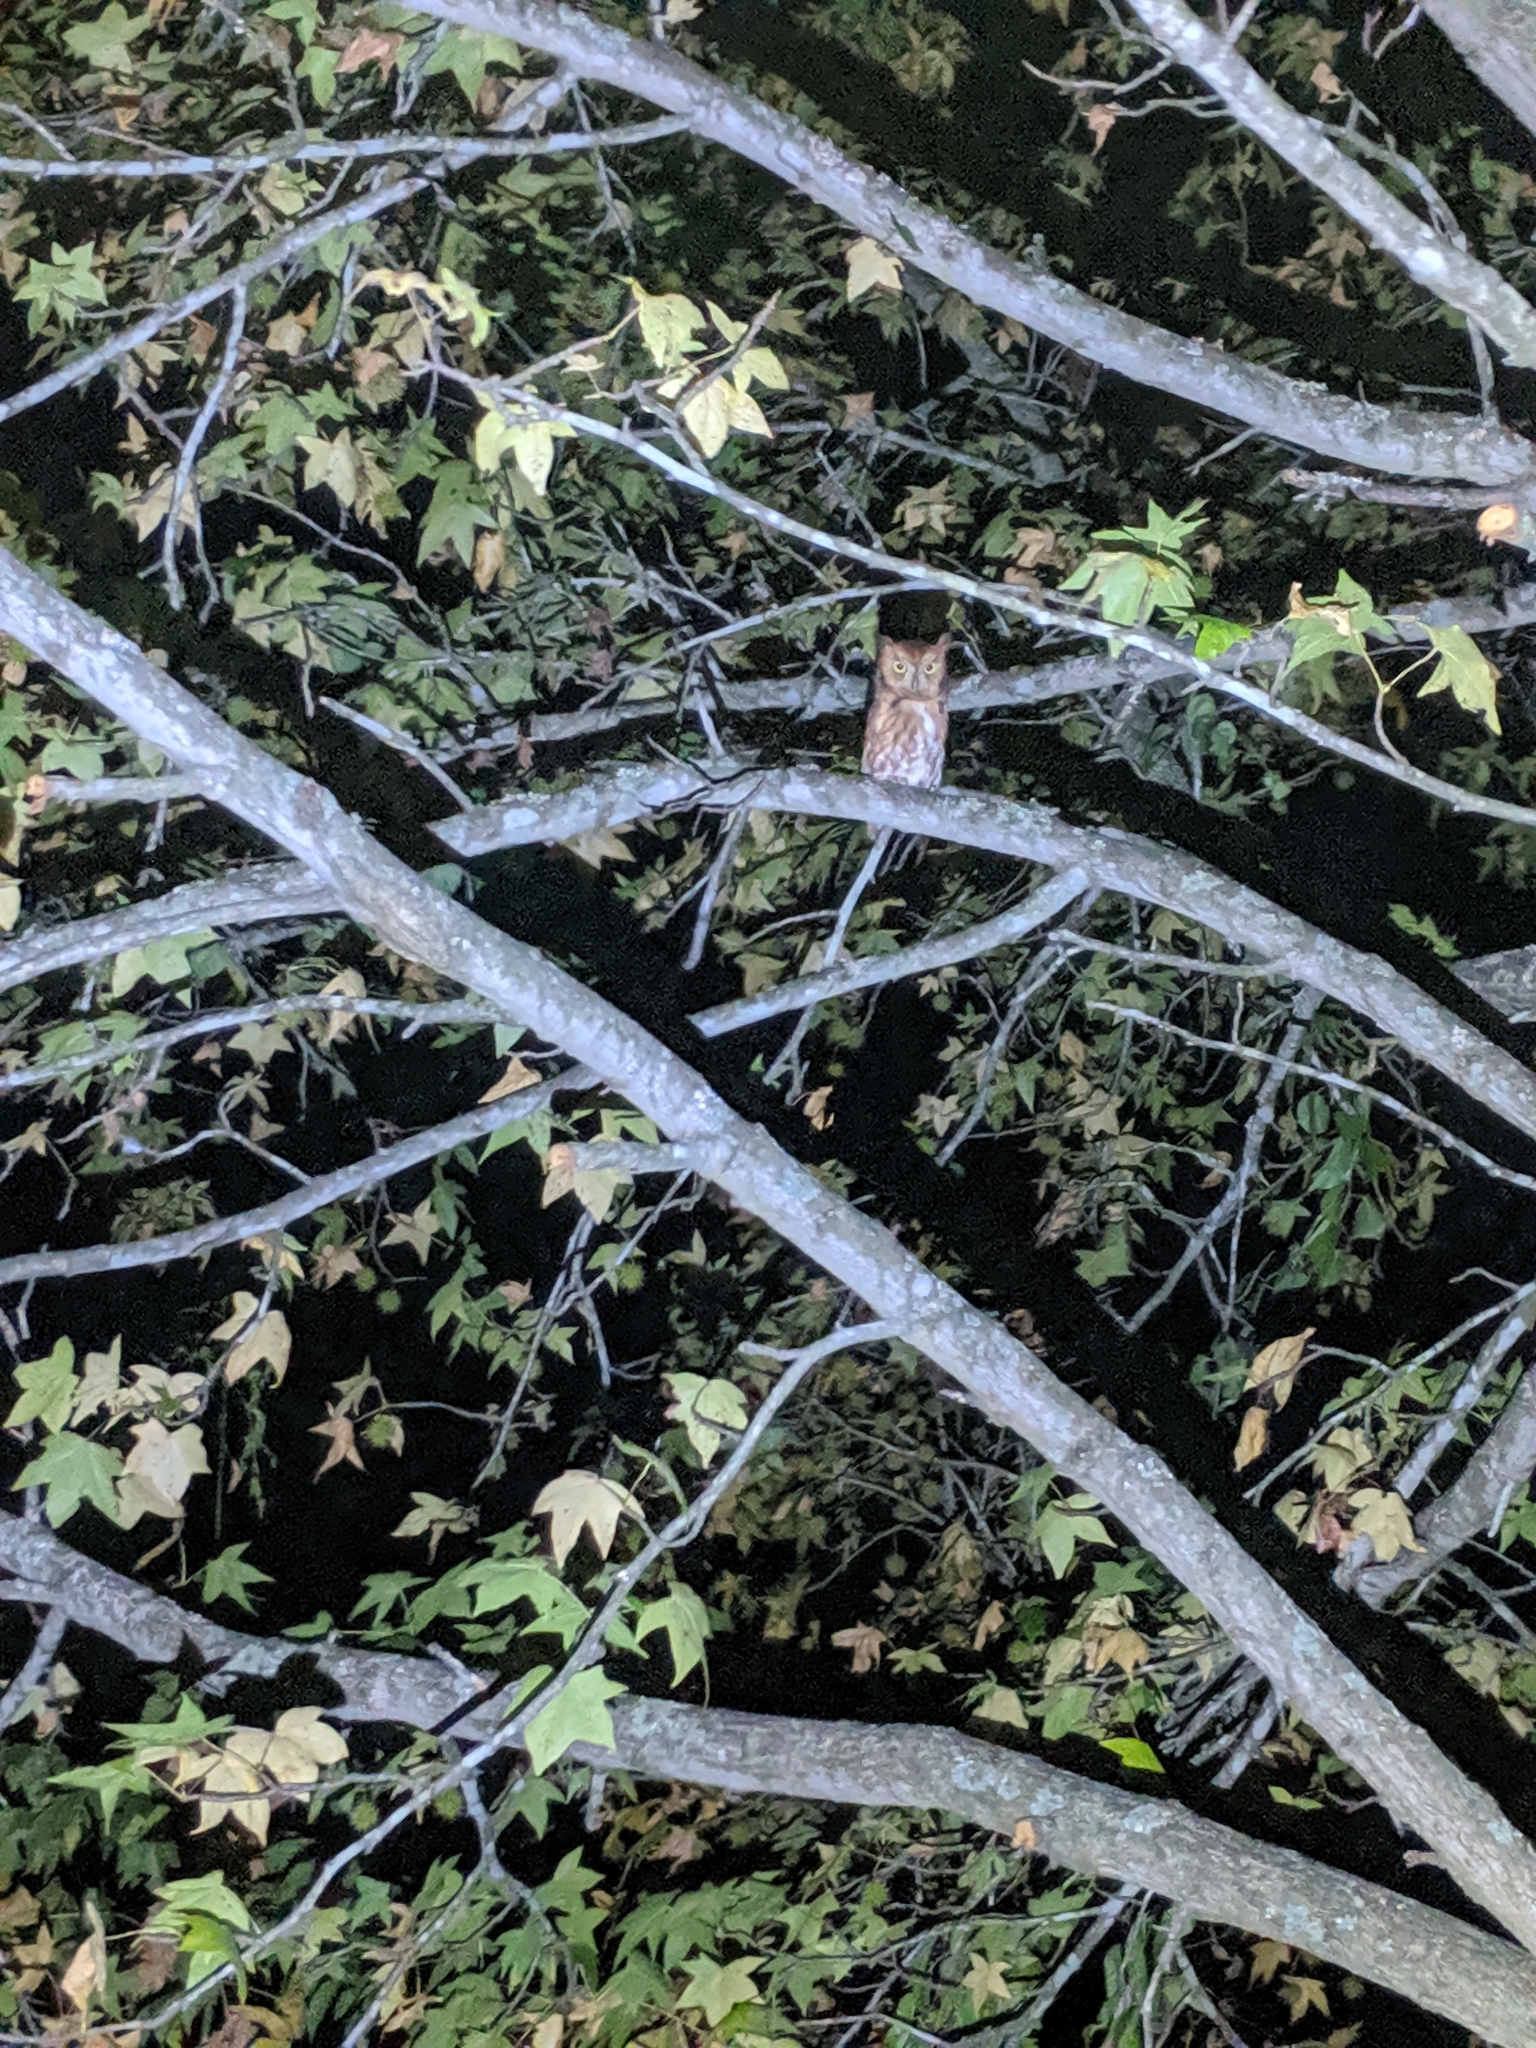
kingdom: Animalia
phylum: Chordata
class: Aves
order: Strigiformes
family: Strigidae
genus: Megascops
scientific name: Megascops asio
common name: Eastern screech-owl
